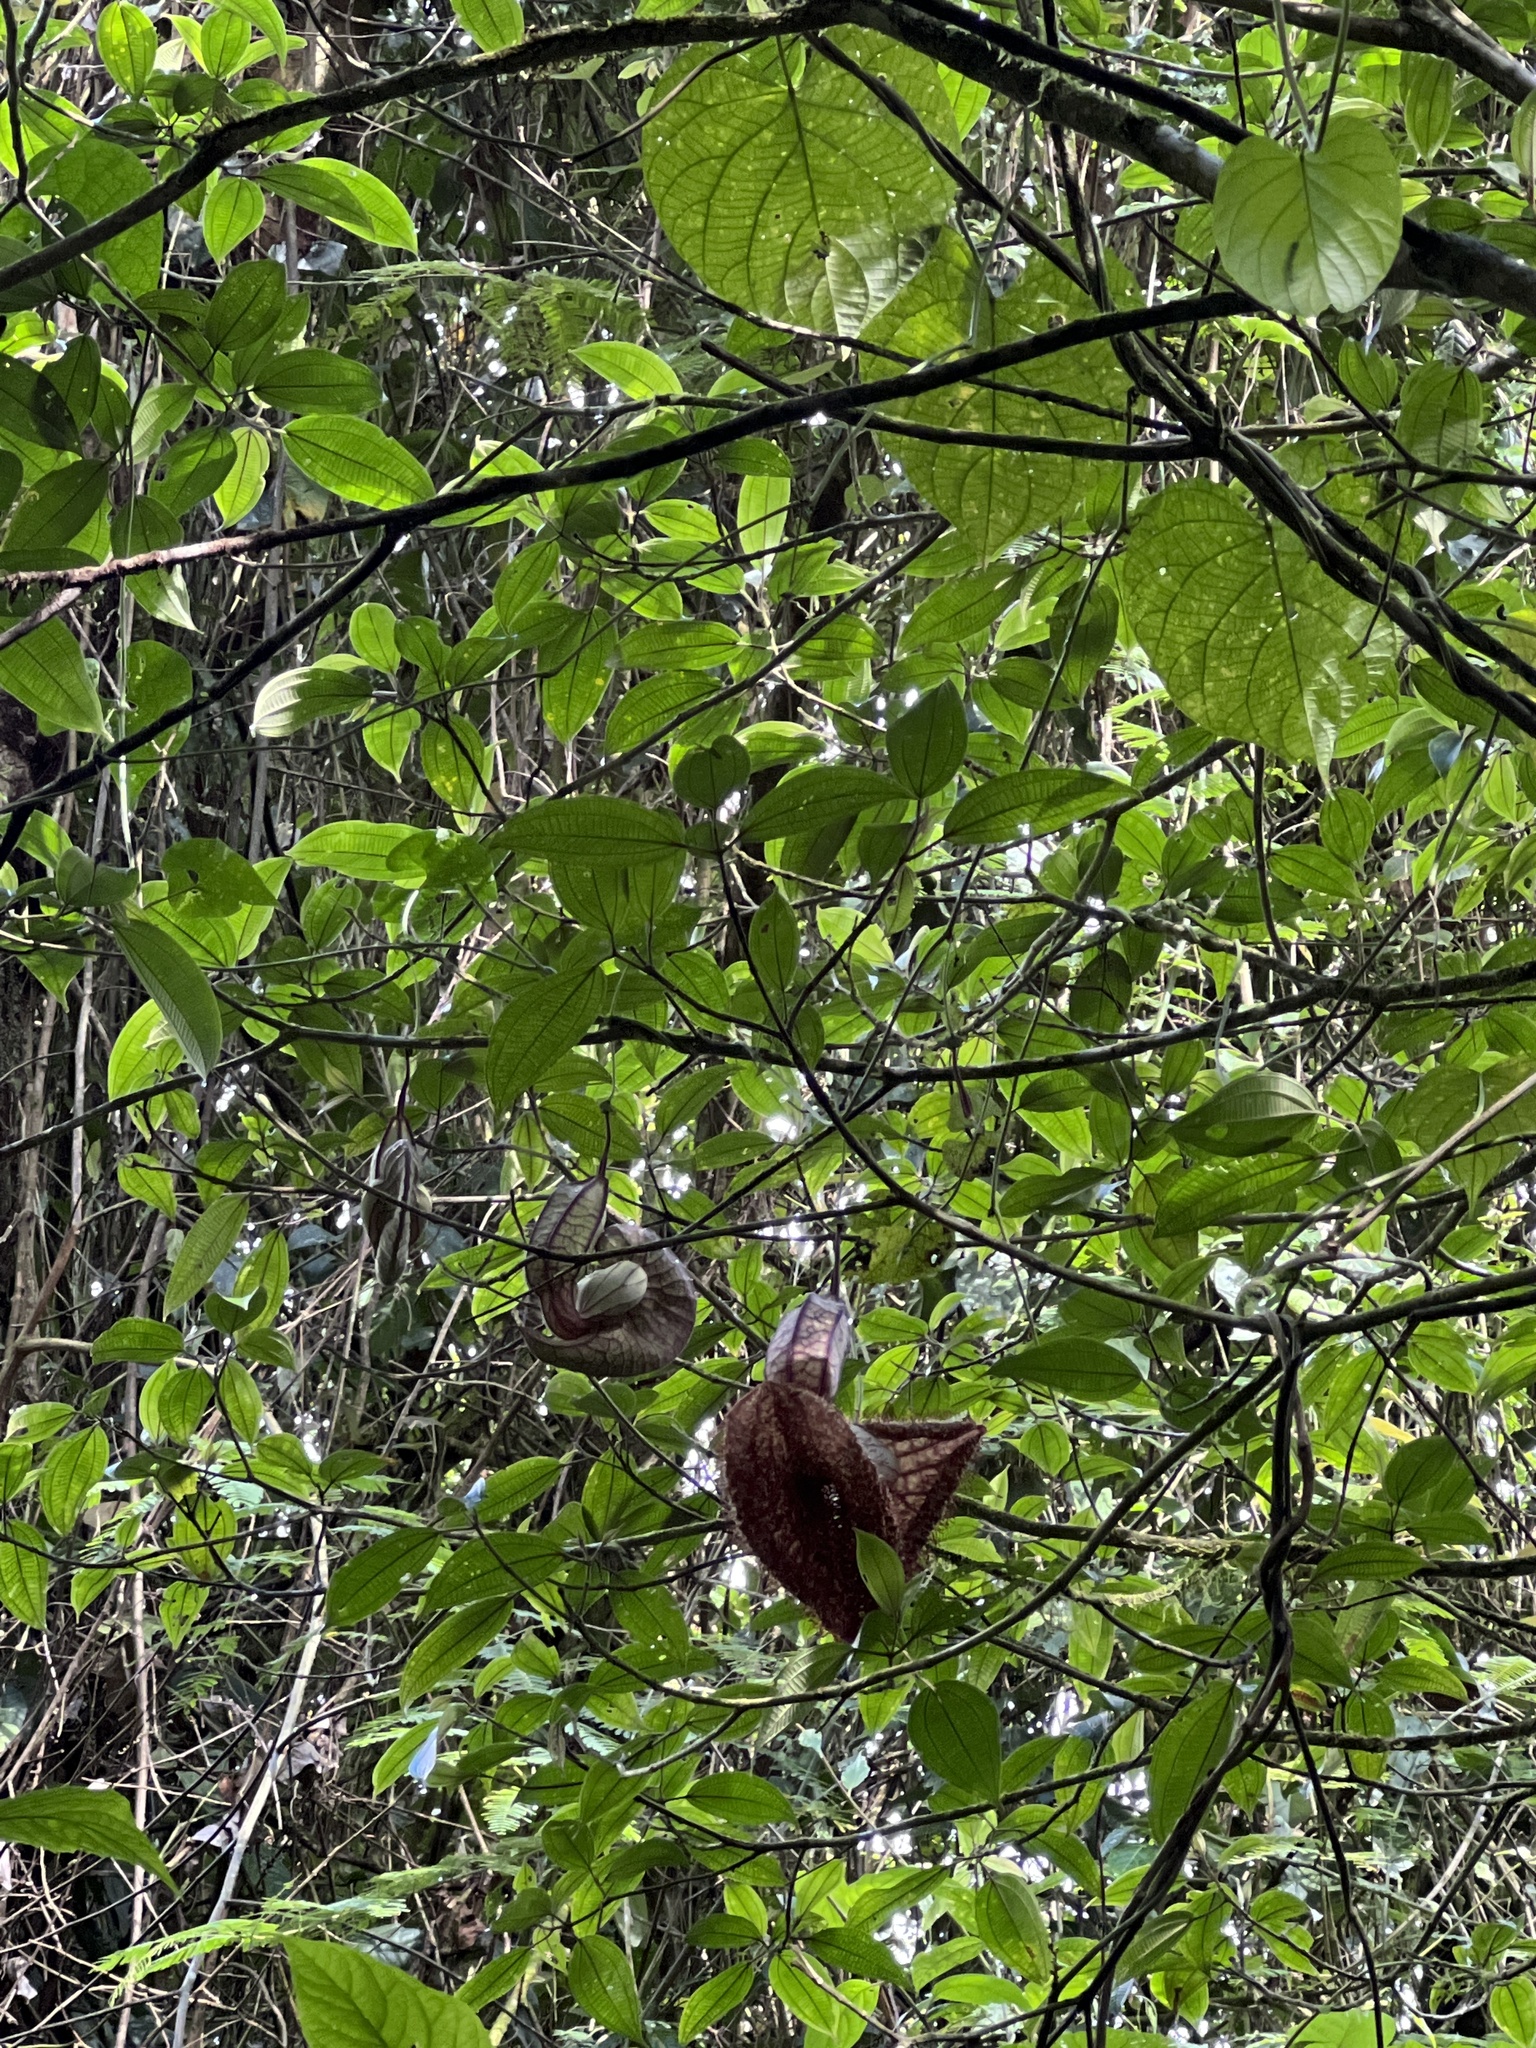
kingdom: Plantae
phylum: Tracheophyta
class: Magnoliopsida
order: Piperales
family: Aristolochiaceae
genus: Aristolochia
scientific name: Aristolochia grandiflora
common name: Pelicanflower
